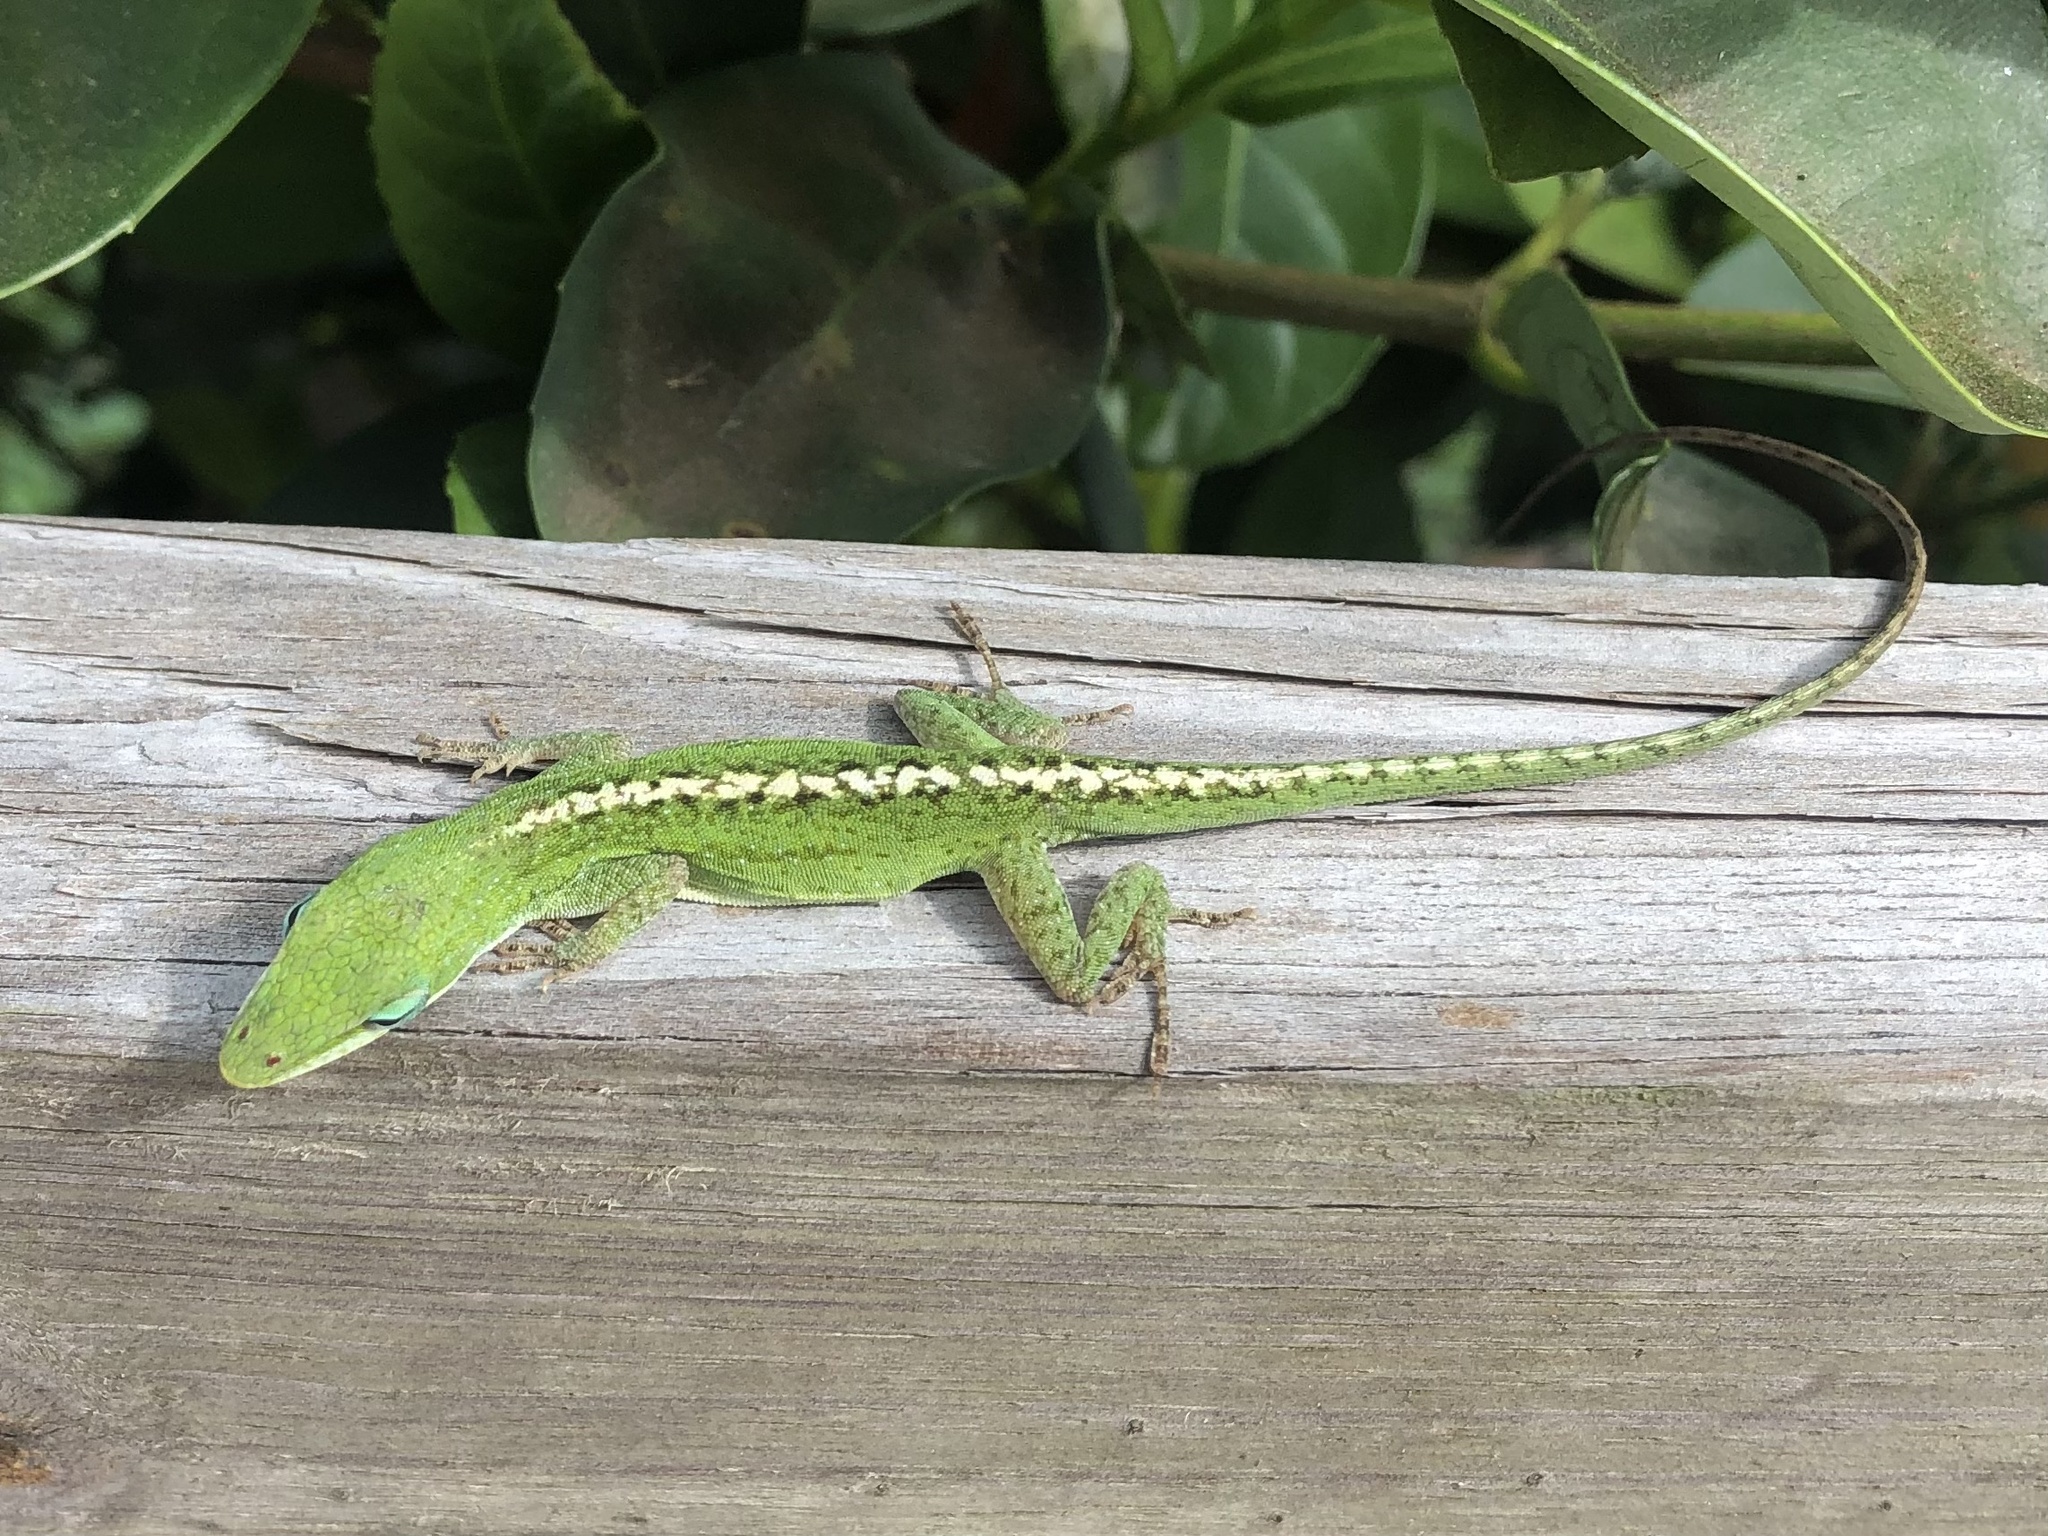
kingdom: Animalia
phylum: Chordata
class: Squamata
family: Dactyloidae
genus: Anolis
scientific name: Anolis carolinensis
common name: Green anole
